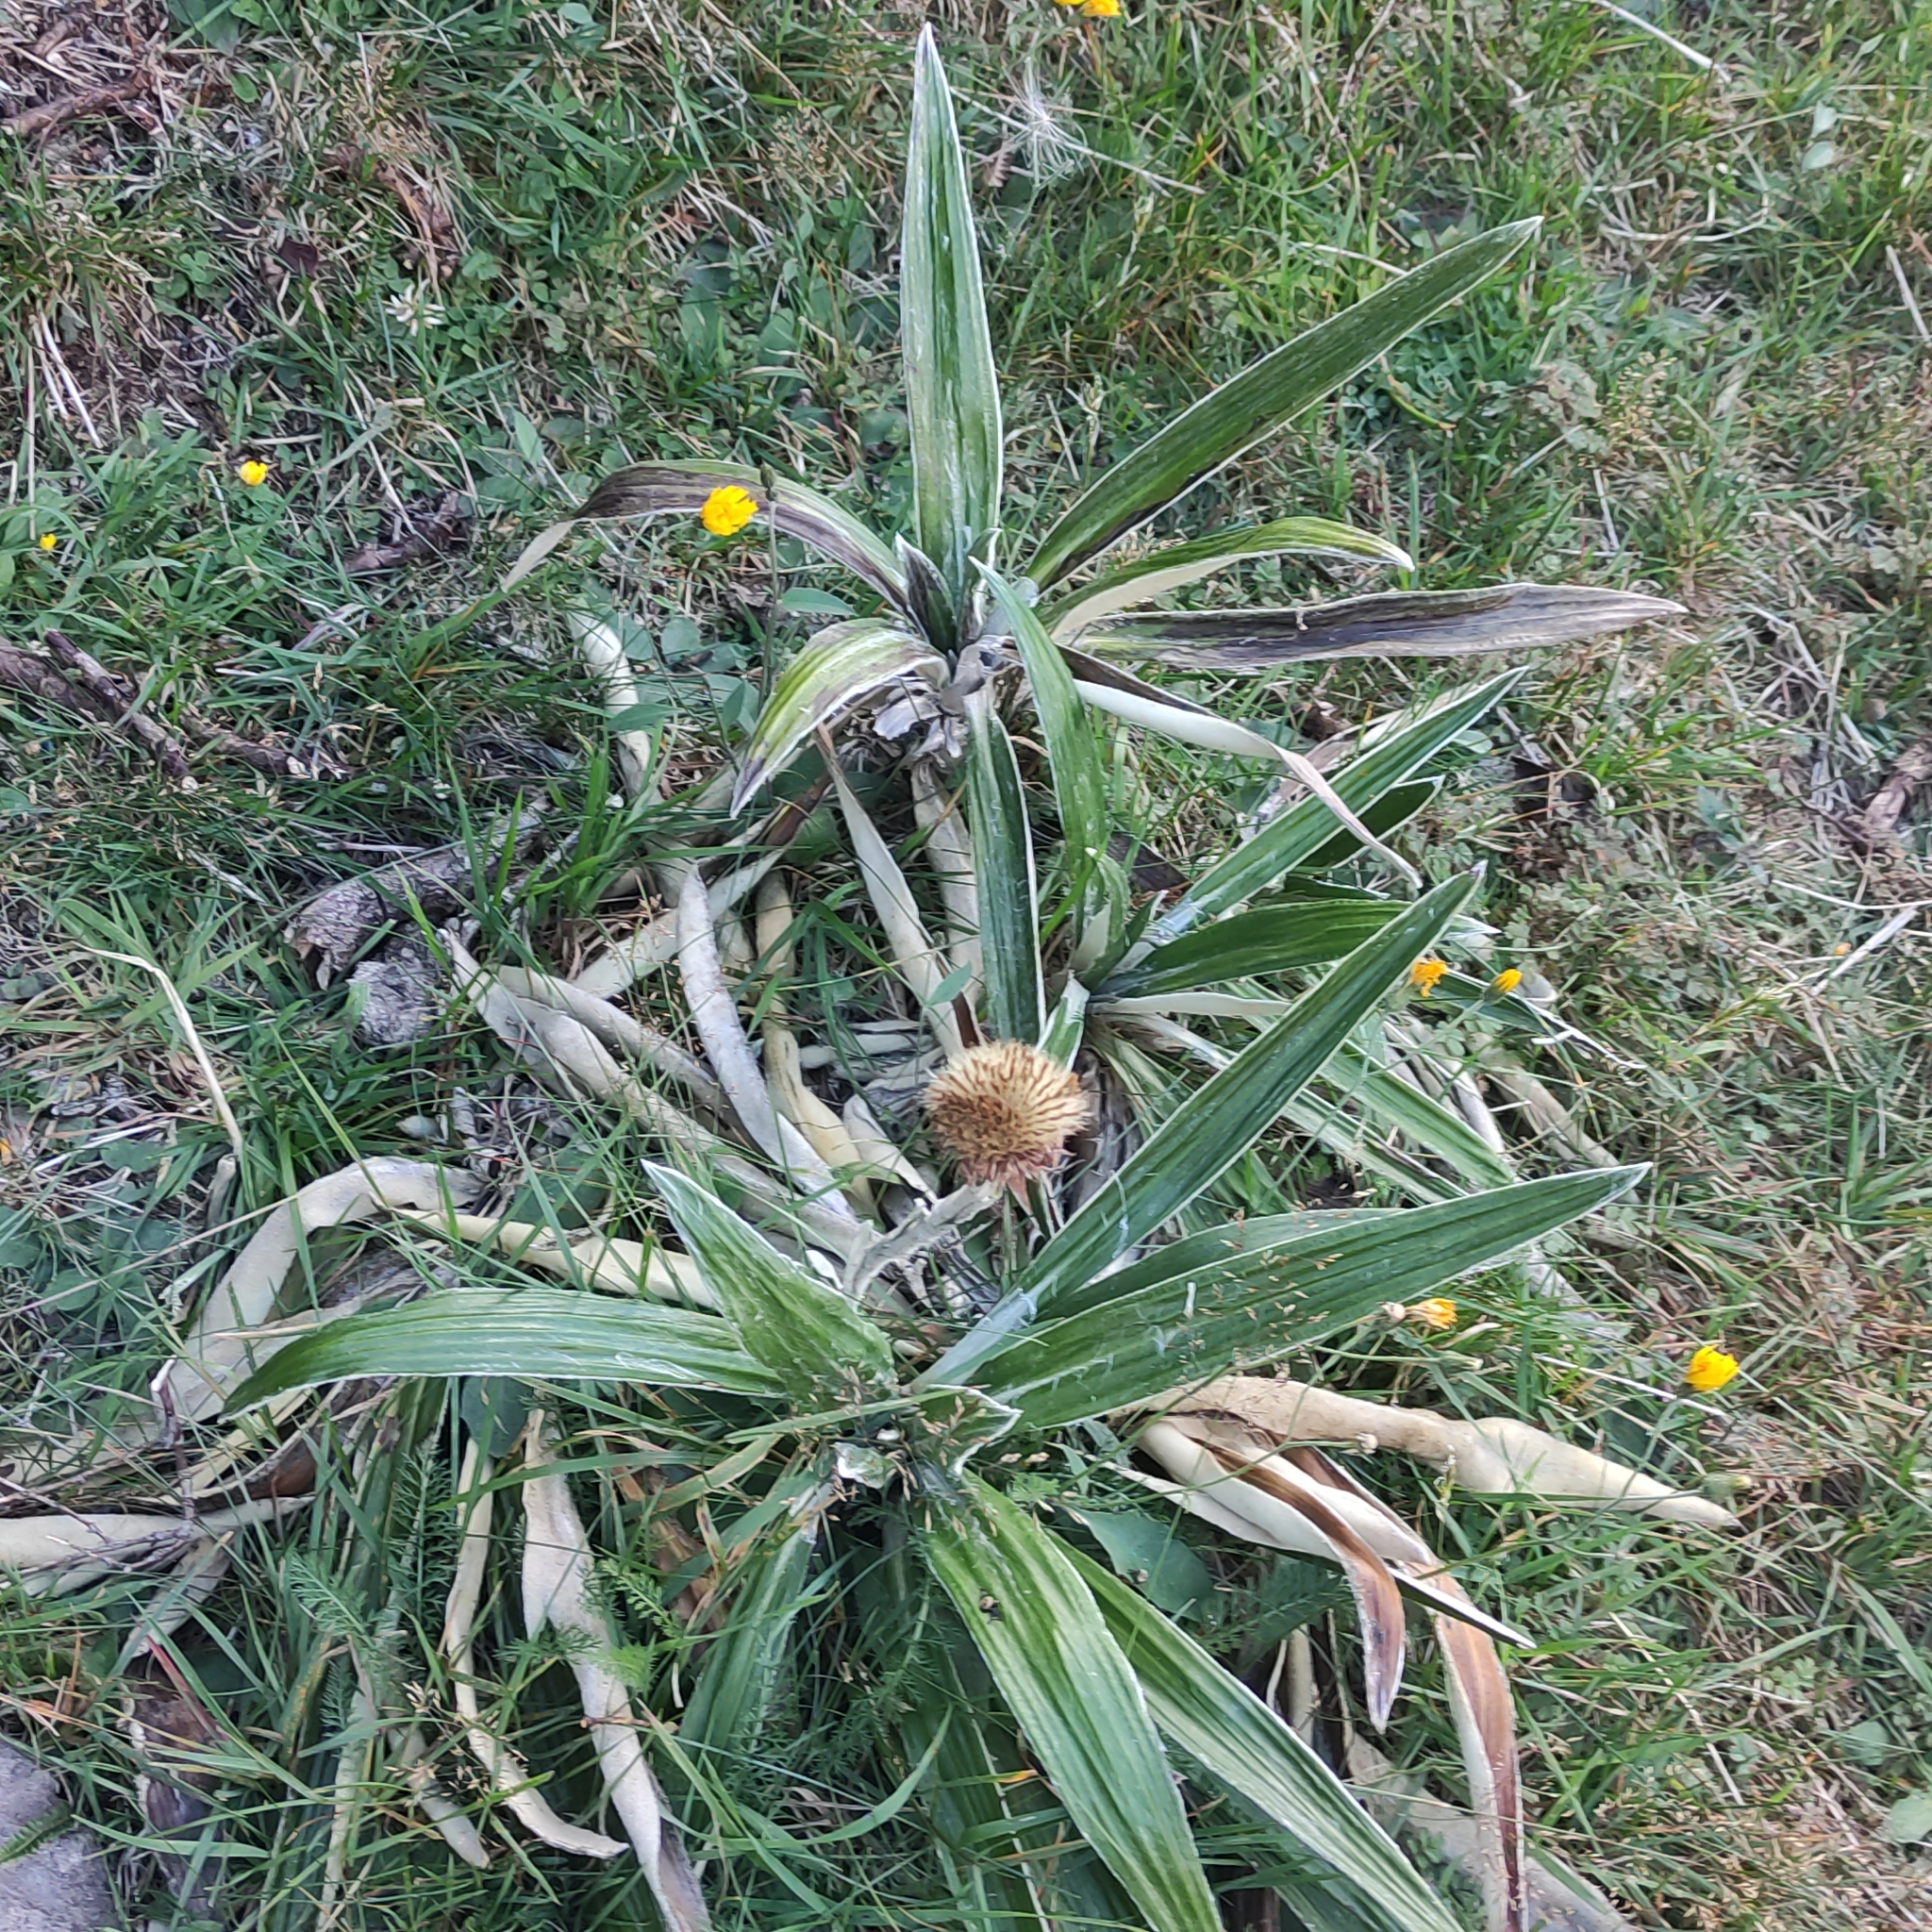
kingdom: Plantae
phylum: Tracheophyta
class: Magnoliopsida
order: Asterales
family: Asteraceae
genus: Celmisia
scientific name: Celmisia spectabilis
